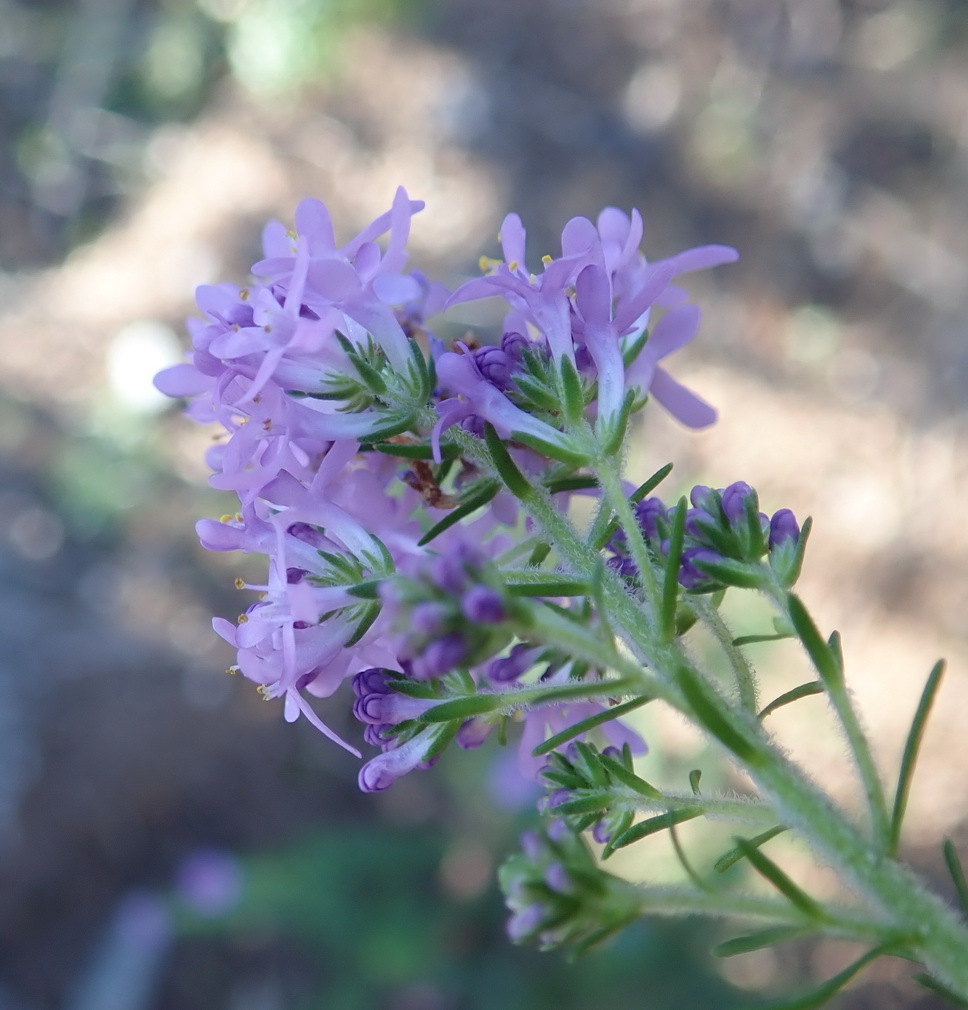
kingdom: Plantae
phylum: Tracheophyta
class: Magnoliopsida
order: Lamiales
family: Scrophulariaceae
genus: Selago
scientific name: Selago burchellii
